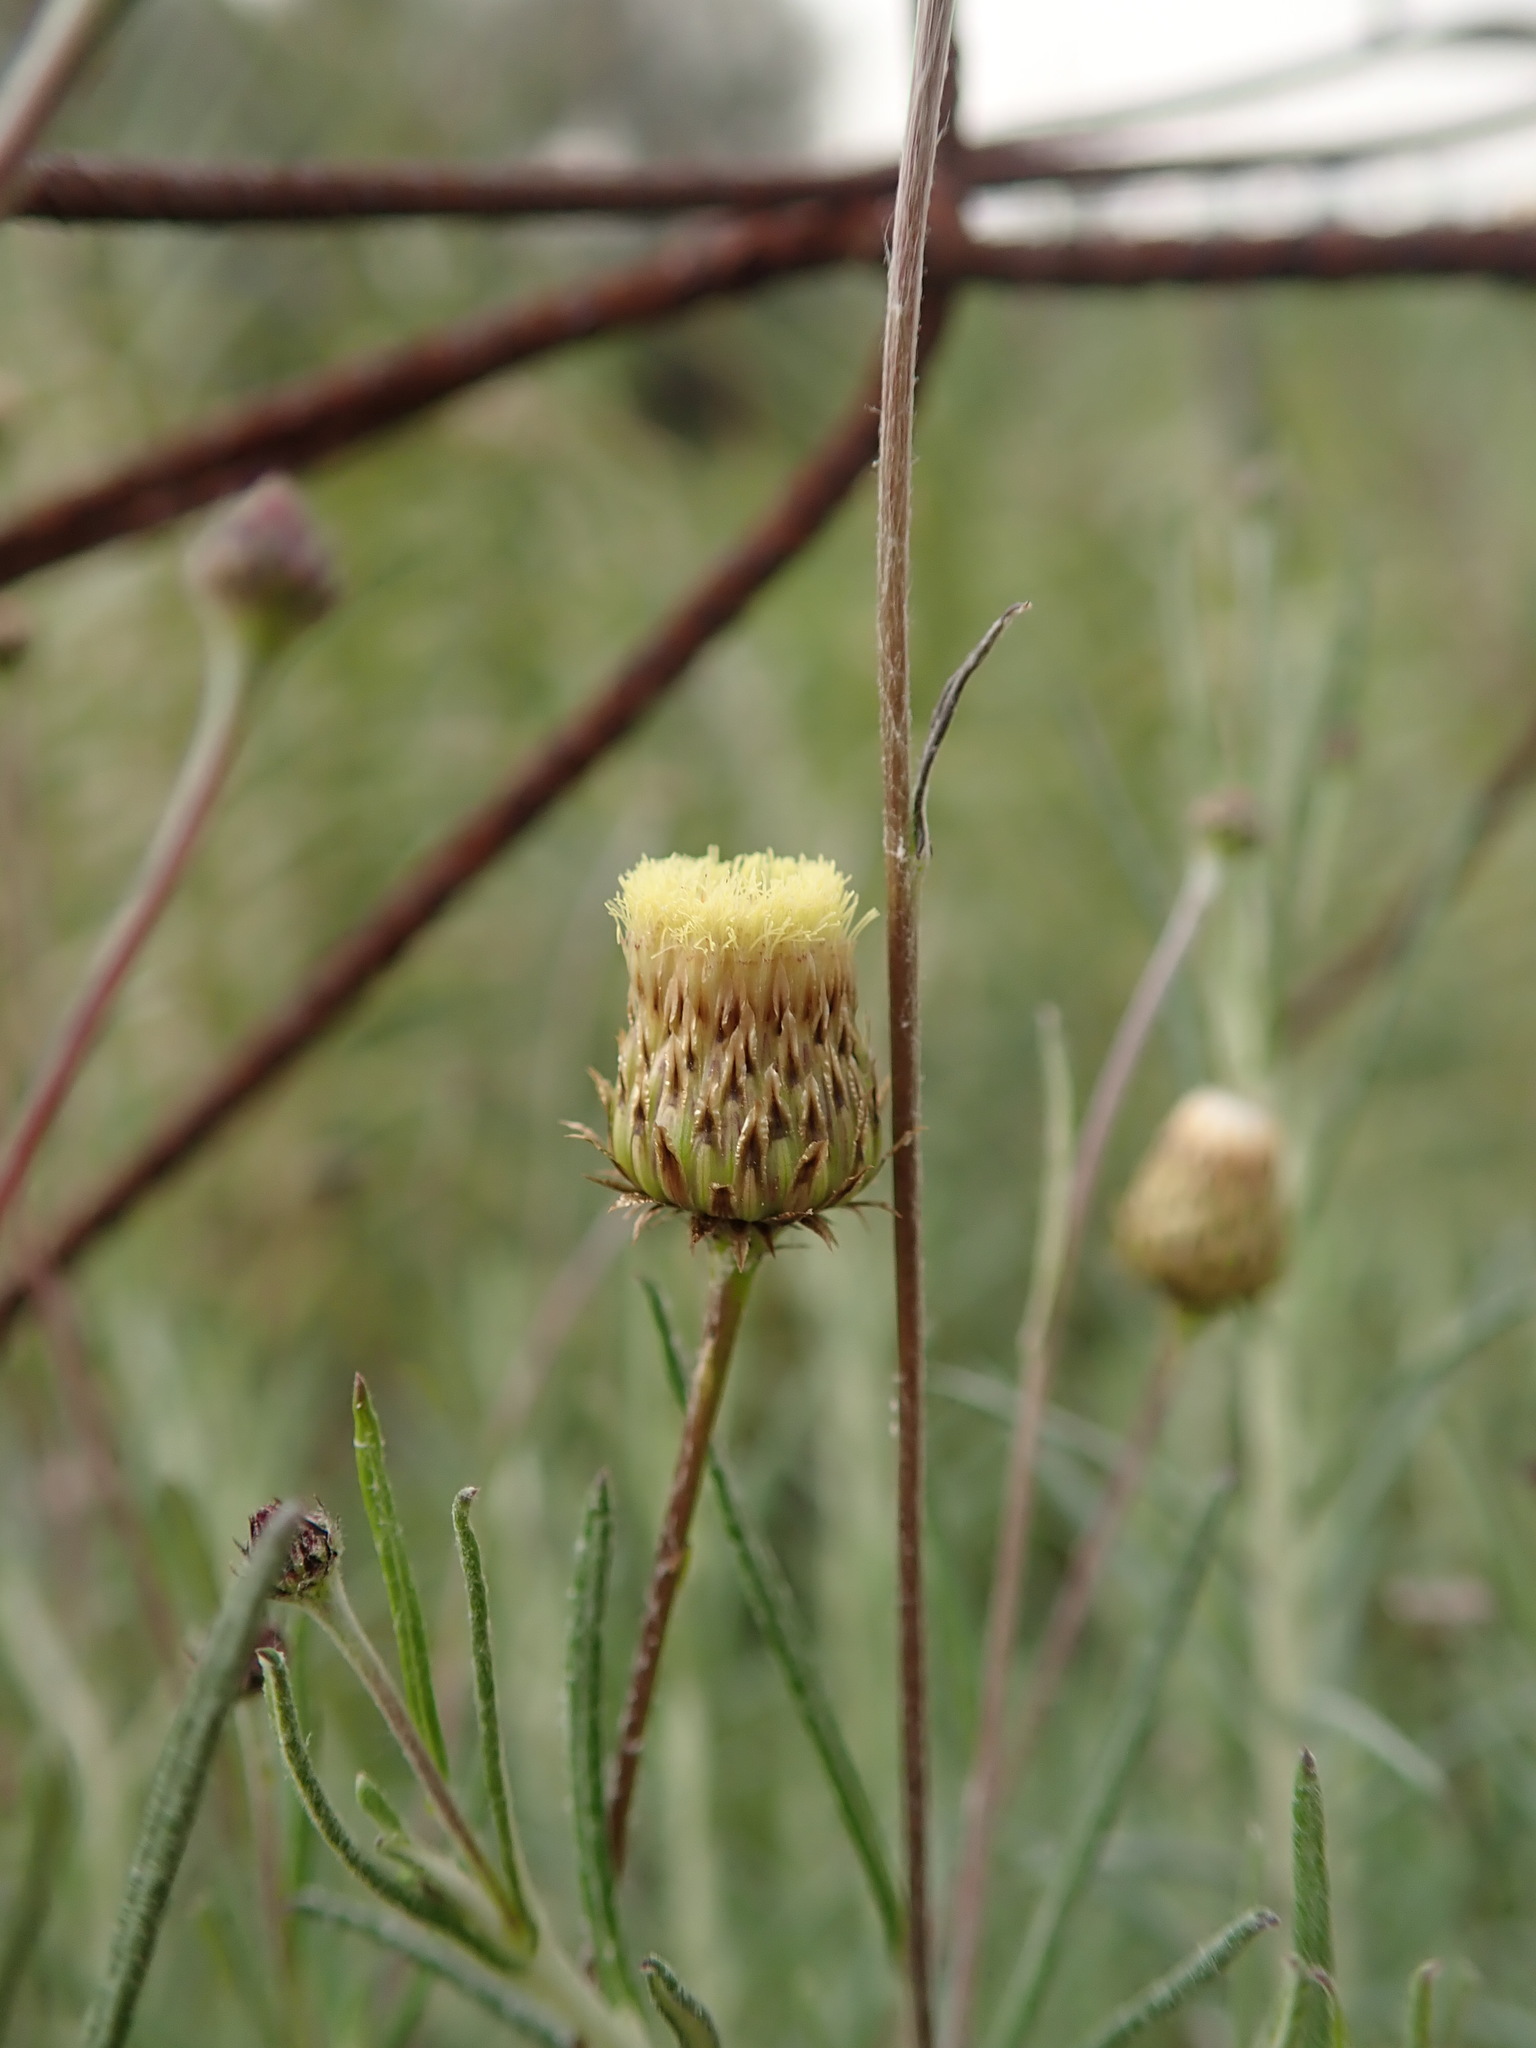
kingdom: Plantae
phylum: Tracheophyta
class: Magnoliopsida
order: Asterales
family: Asteraceae
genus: Phagnalon
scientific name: Phagnalon saxatile
